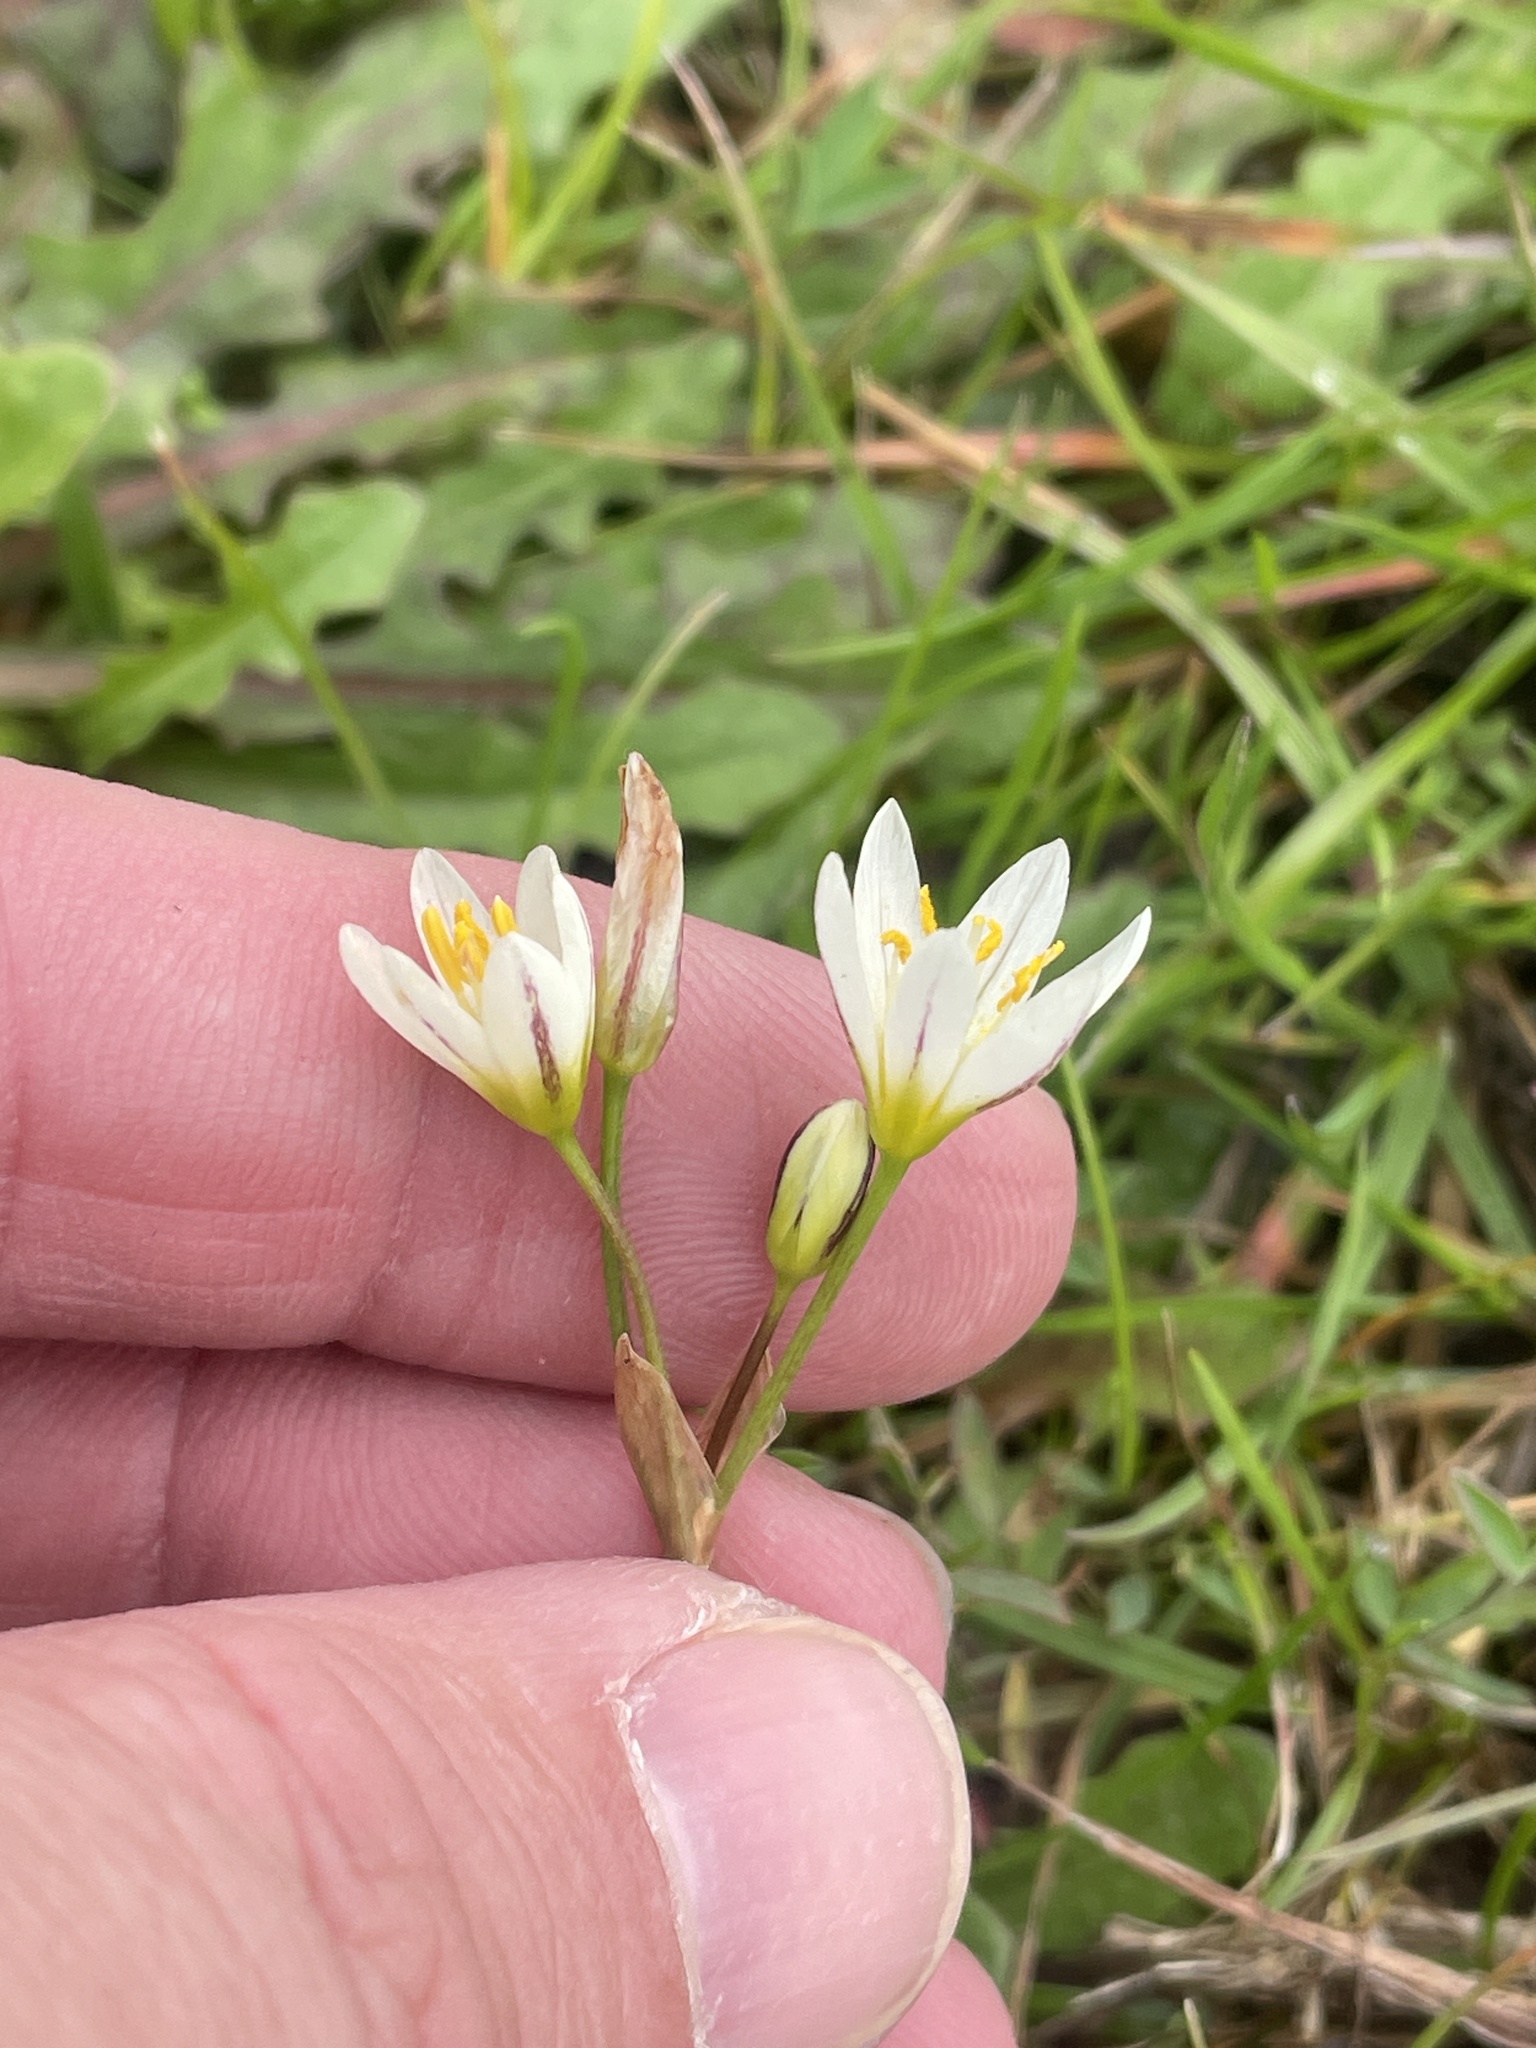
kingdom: Plantae
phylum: Tracheophyta
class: Liliopsida
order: Asparagales
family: Amaryllidaceae
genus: Nothoscordum
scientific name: Nothoscordum bivalve
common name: Crow-poison
